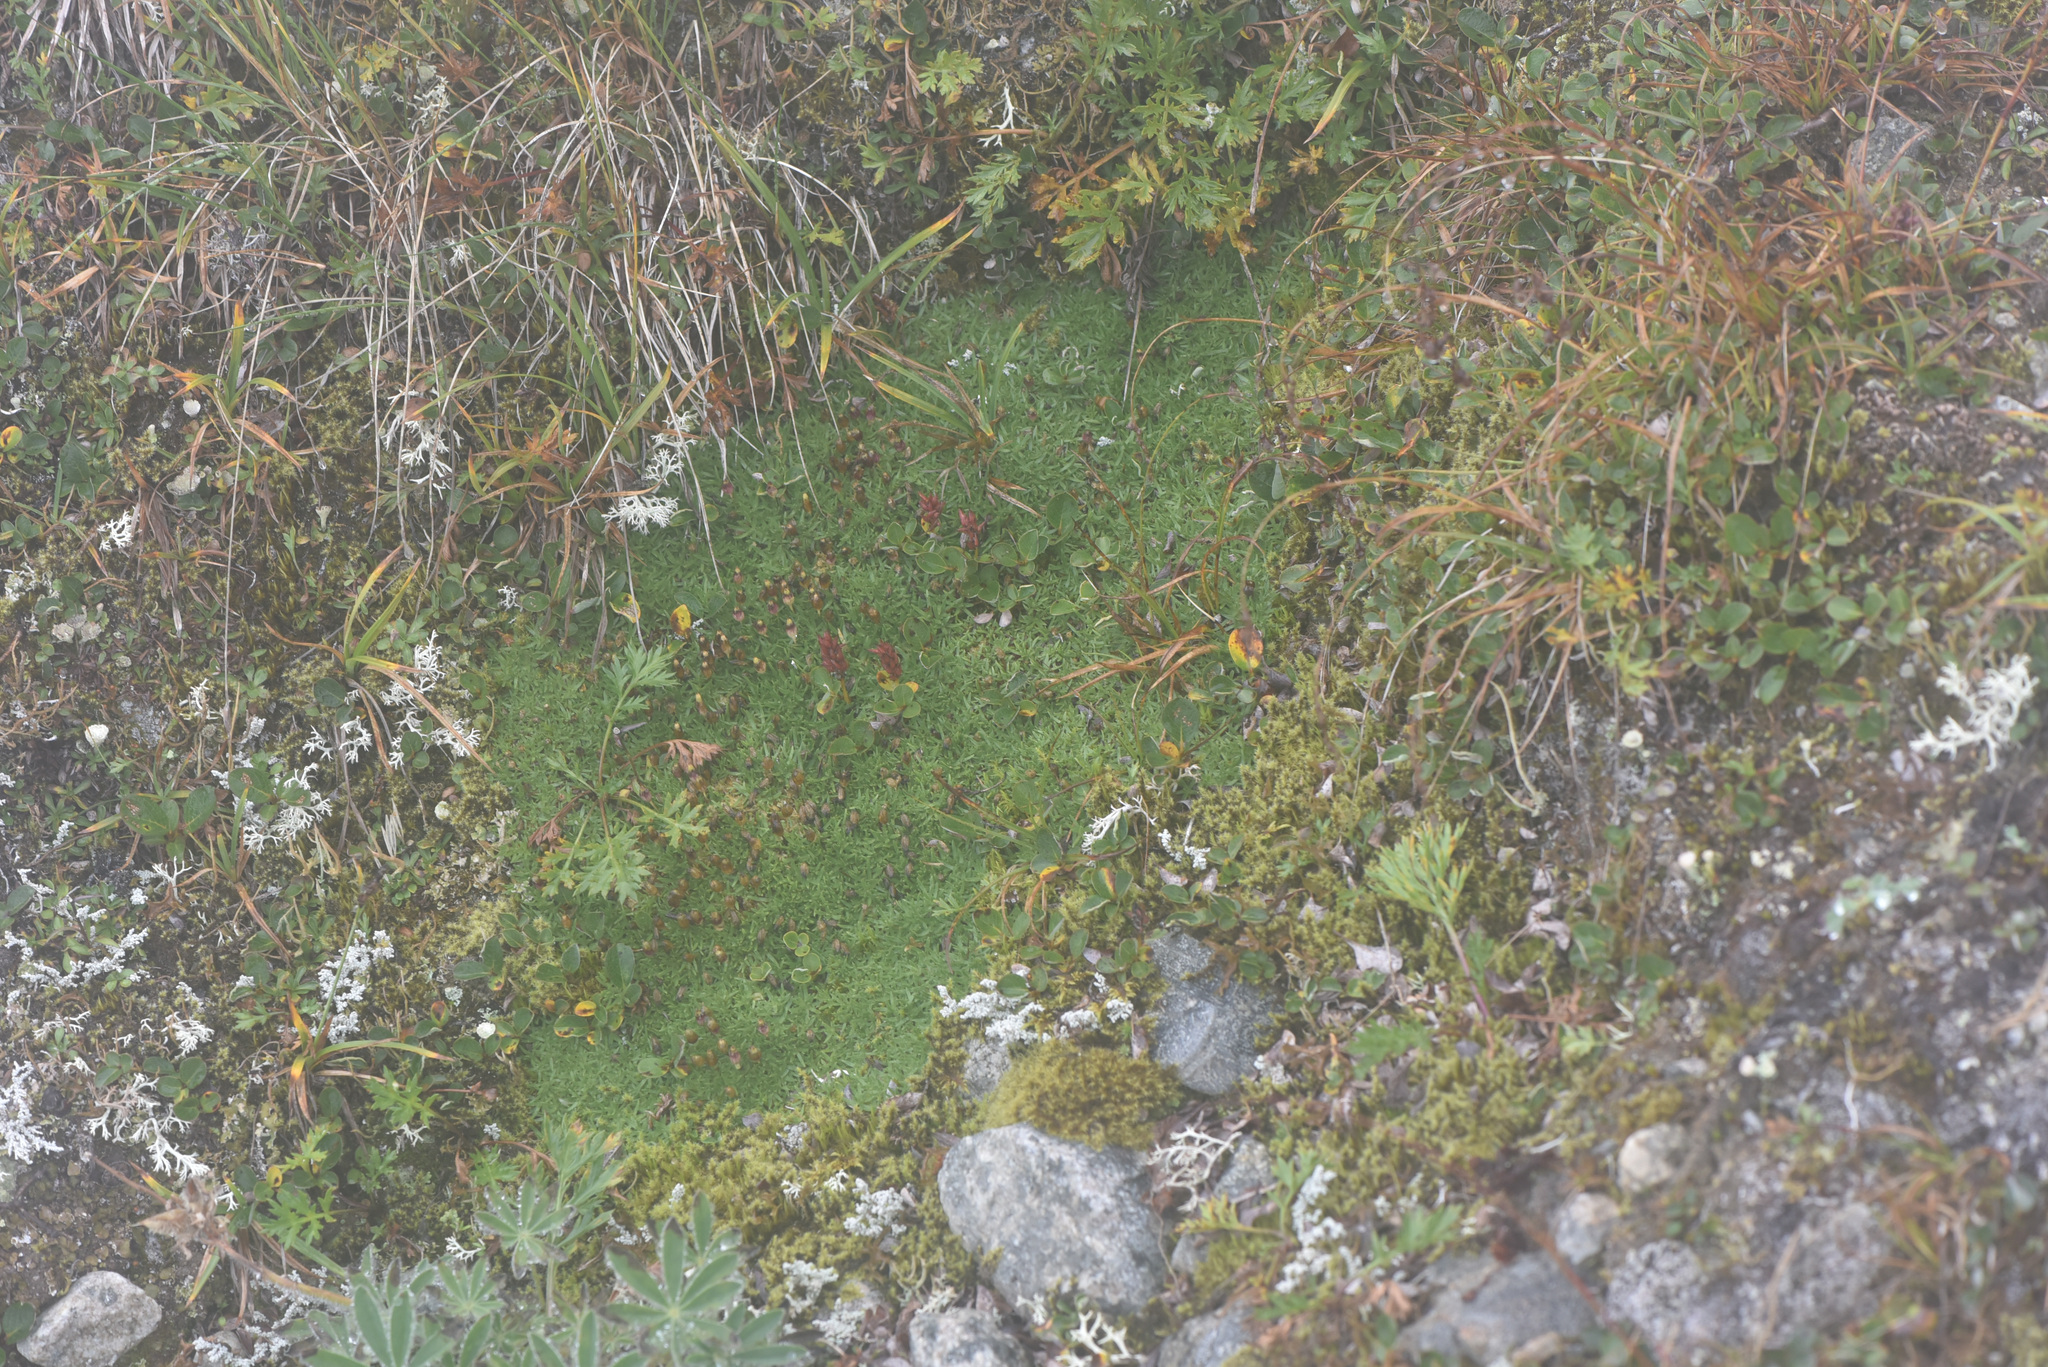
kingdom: Plantae
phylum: Tracheophyta
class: Magnoliopsida
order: Caryophyllales
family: Caryophyllaceae
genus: Silene
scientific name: Silene acaulis
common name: Moss campion
